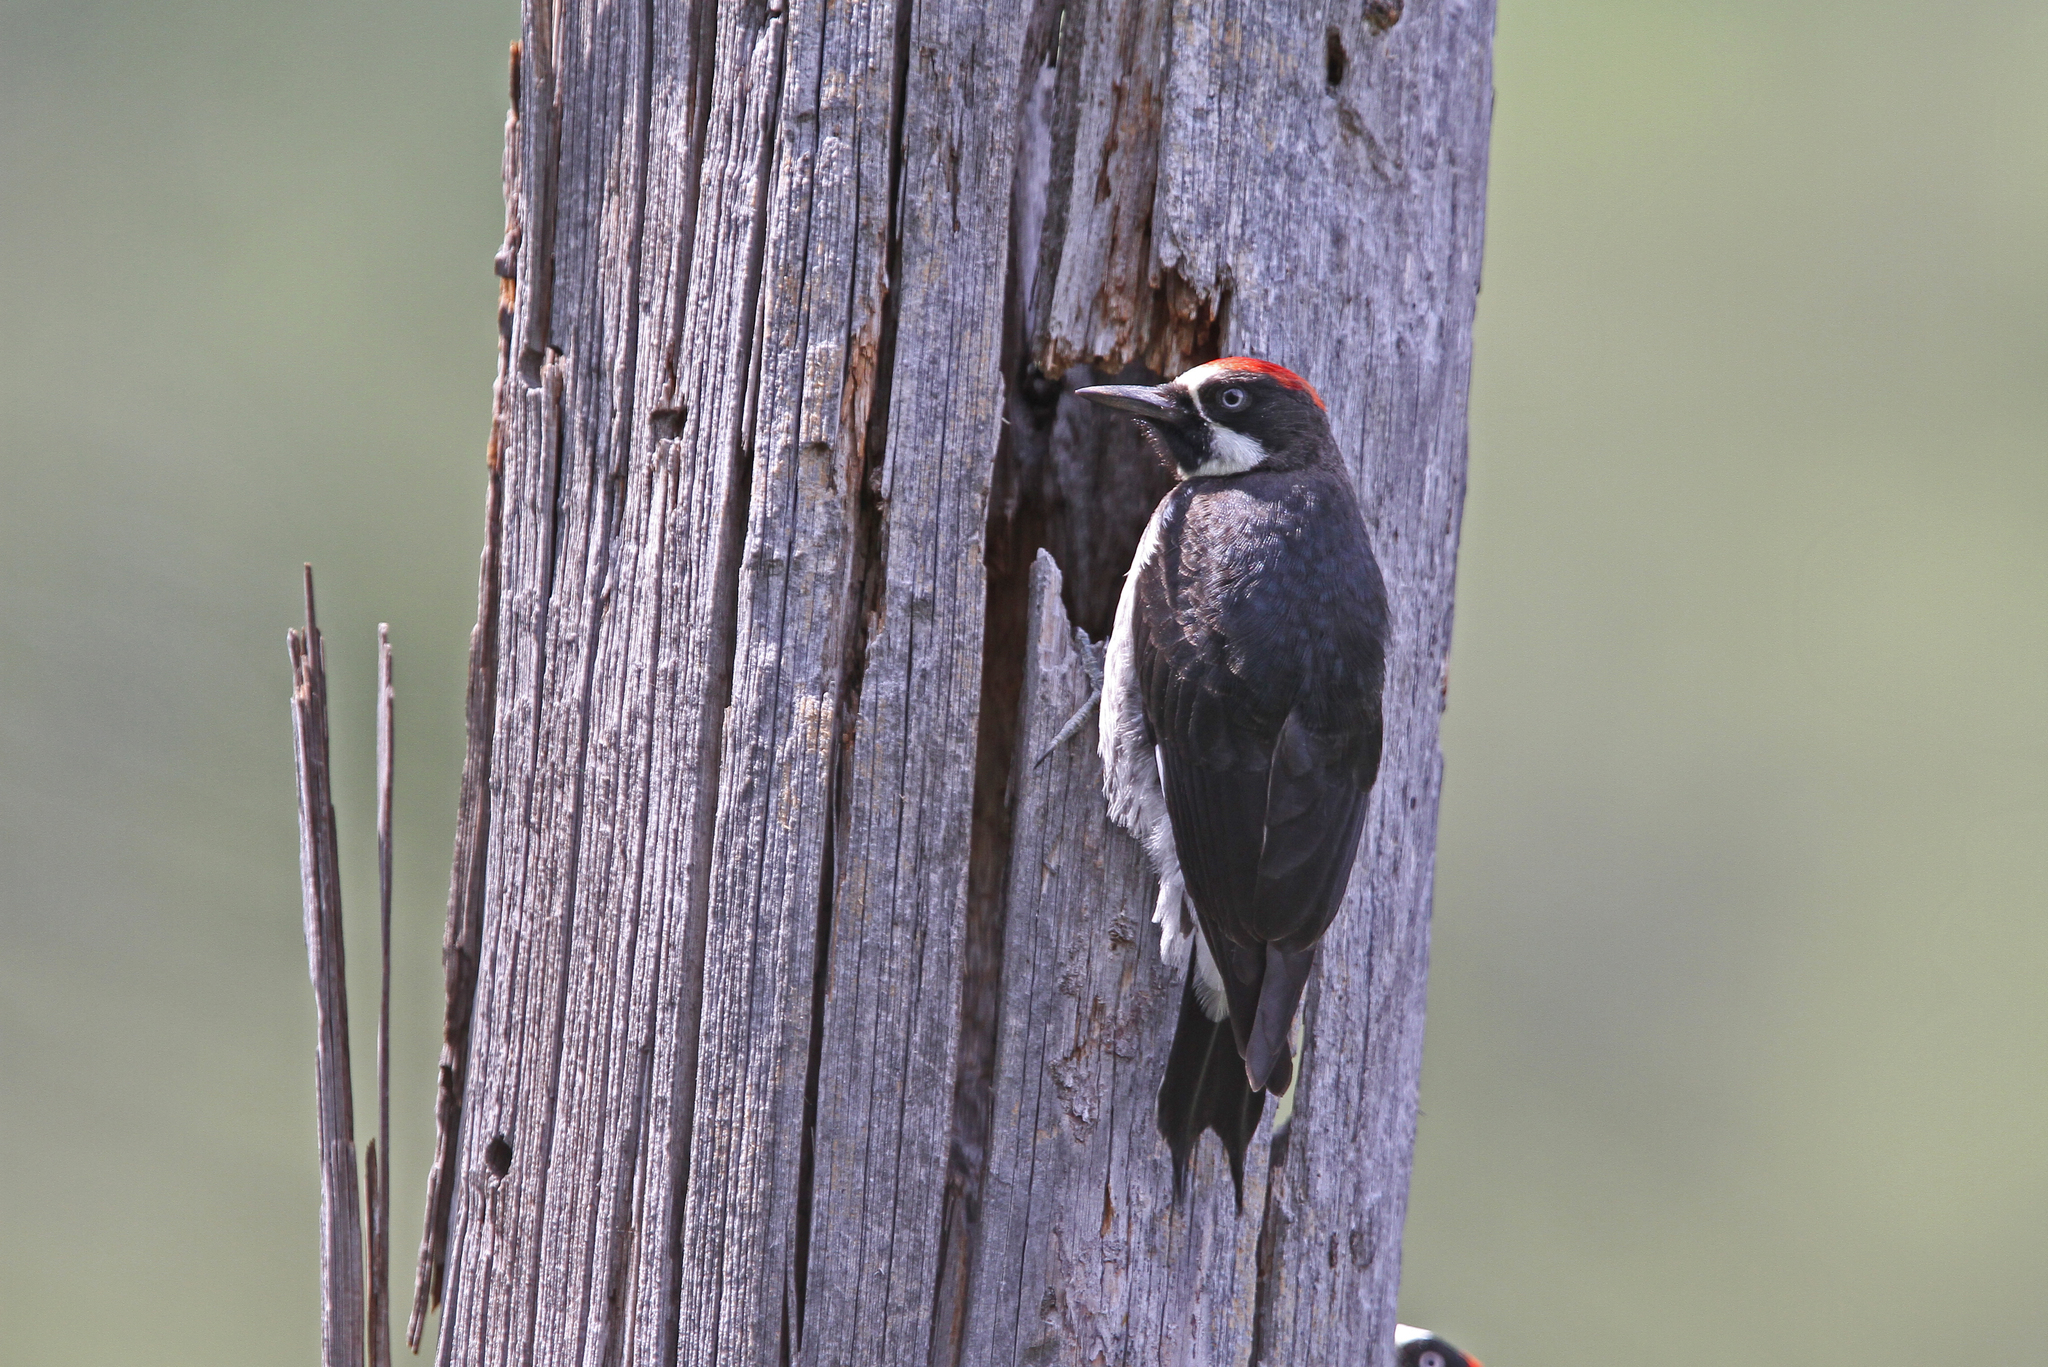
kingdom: Animalia
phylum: Chordata
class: Aves
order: Piciformes
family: Picidae
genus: Melanerpes
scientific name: Melanerpes formicivorus
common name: Acorn woodpecker
